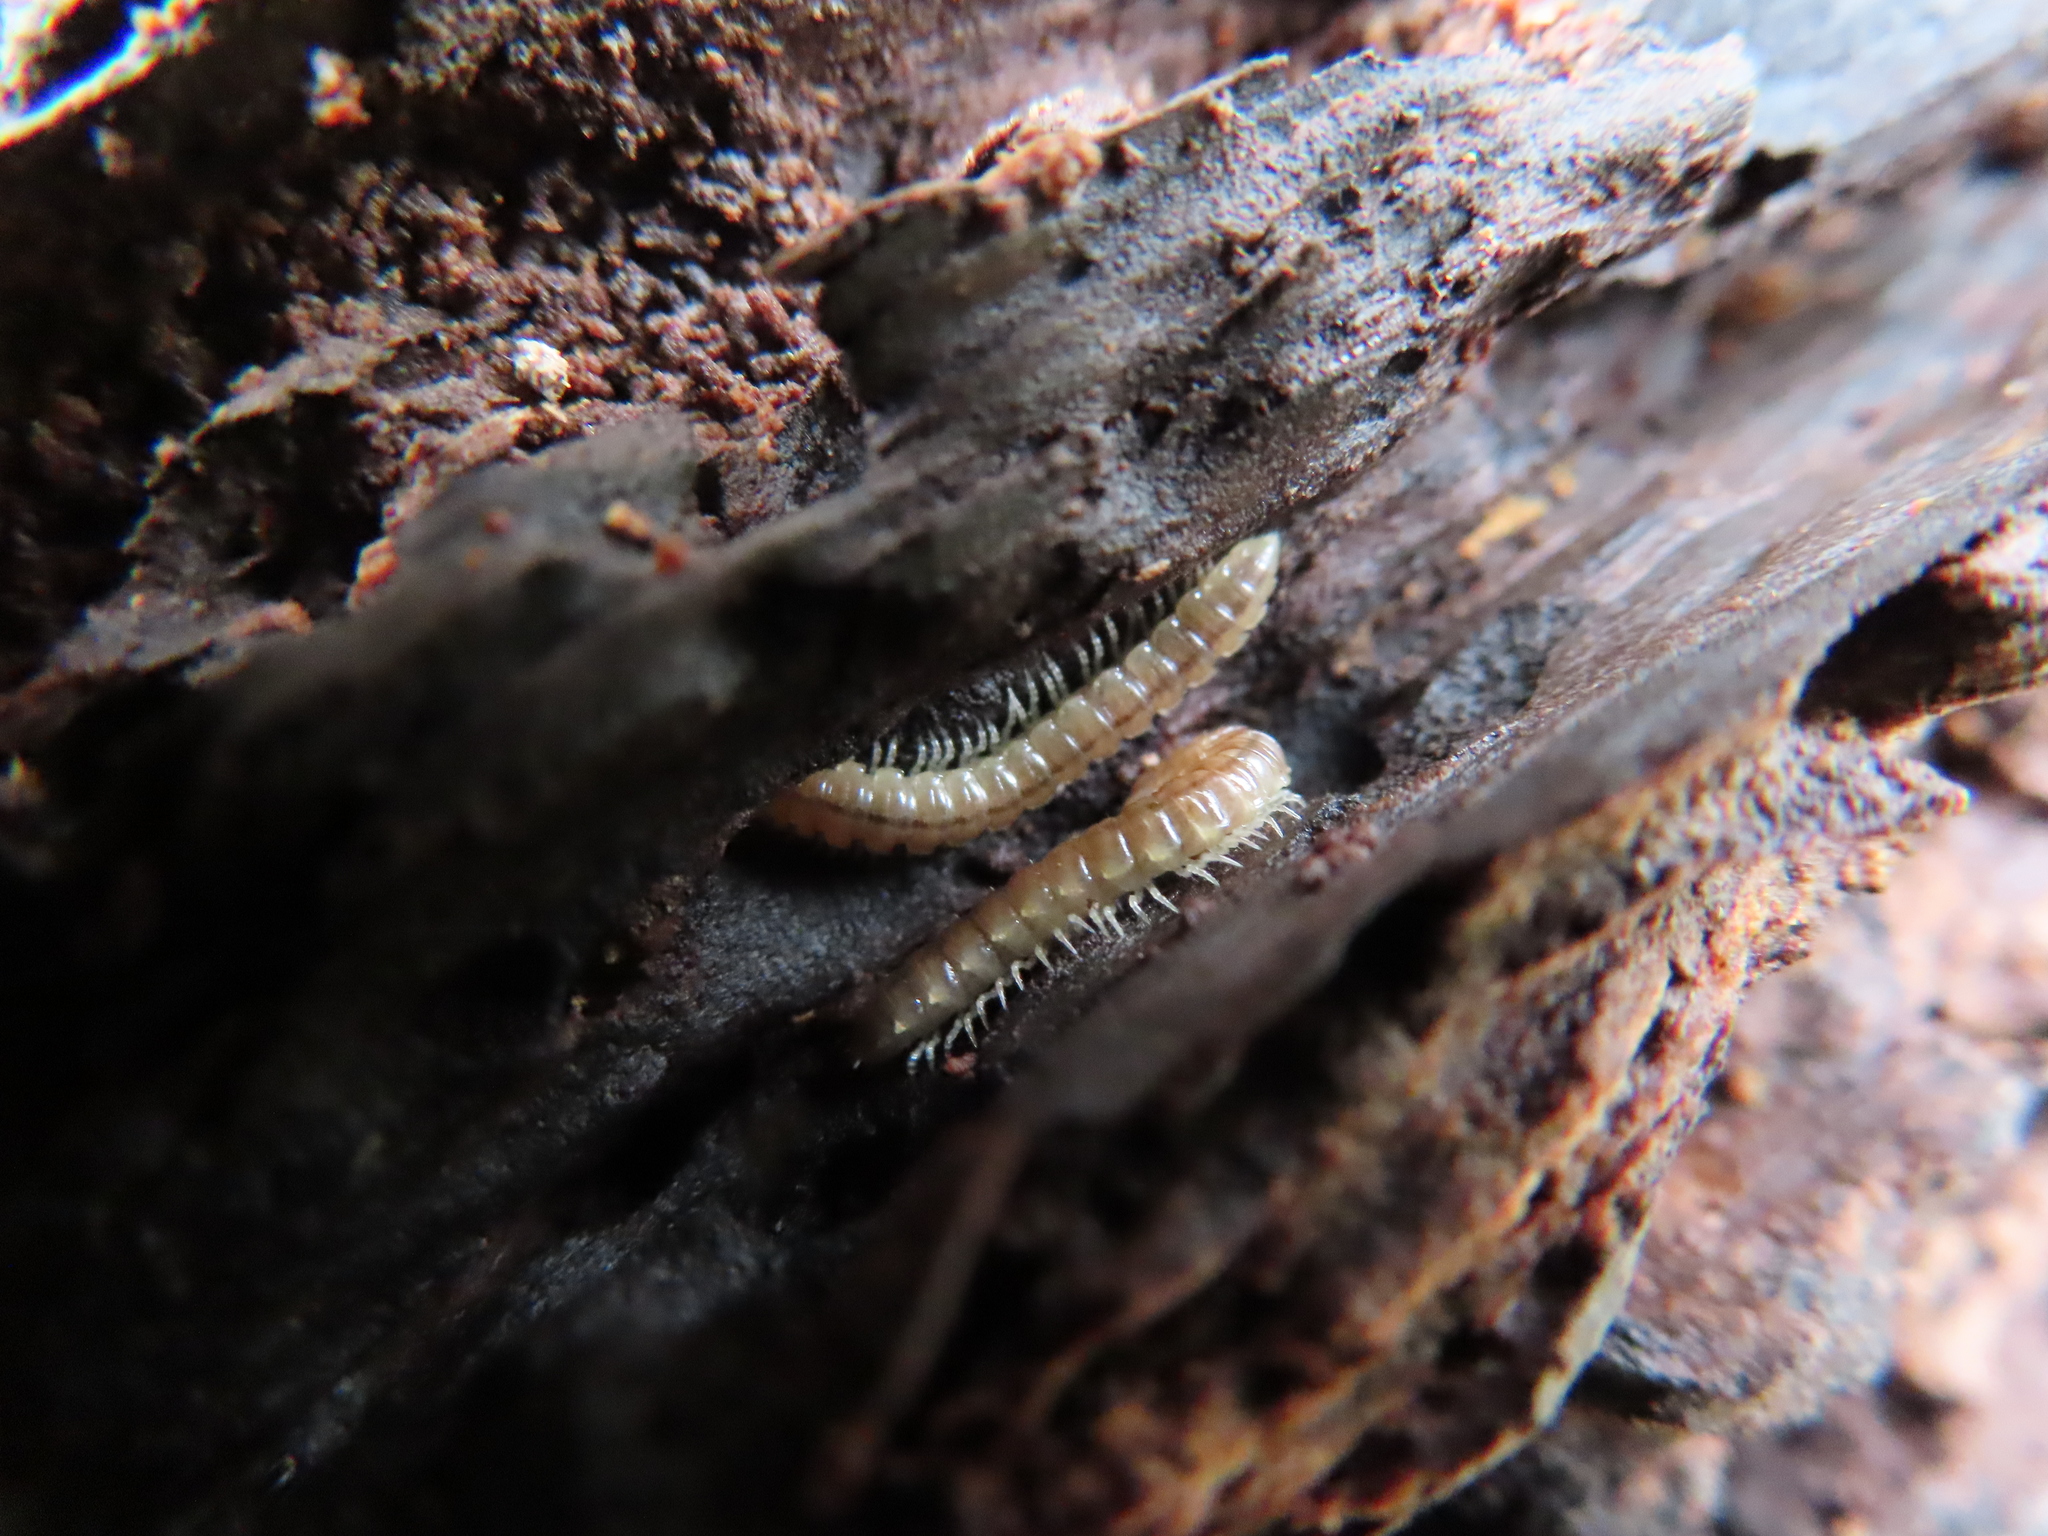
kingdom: Animalia
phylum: Arthropoda
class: Diplopoda
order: Polydesmida
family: Paradoxosomatidae
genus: Oxidus
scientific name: Oxidus gracilis
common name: Greenhouse millipede
